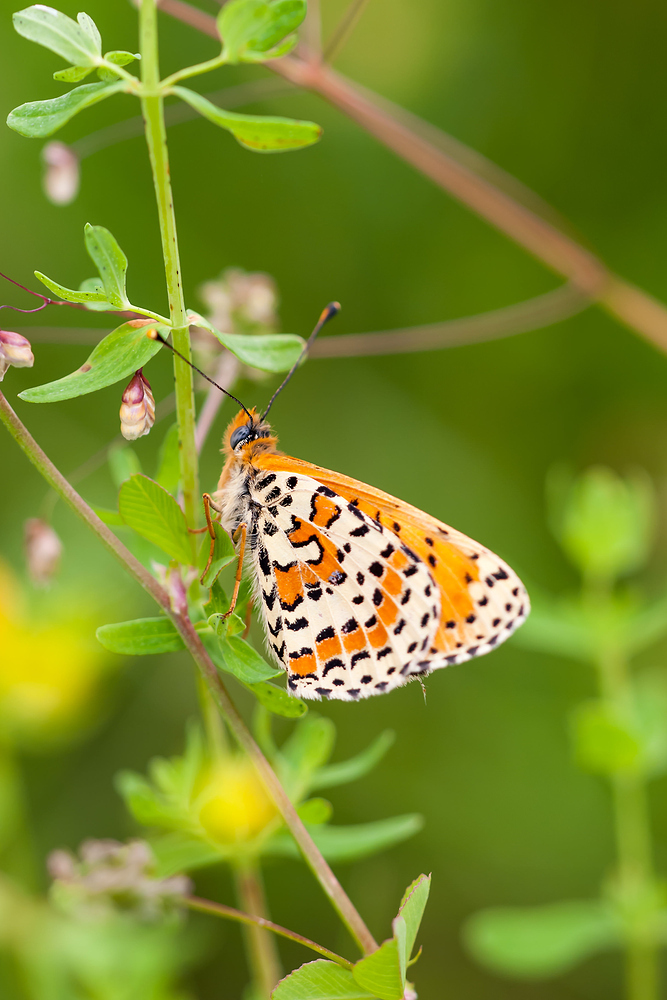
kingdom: Animalia
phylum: Arthropoda
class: Insecta
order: Lepidoptera
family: Nymphalidae
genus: Melitaea
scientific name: Melitaea didyma
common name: Spotted fritillary
